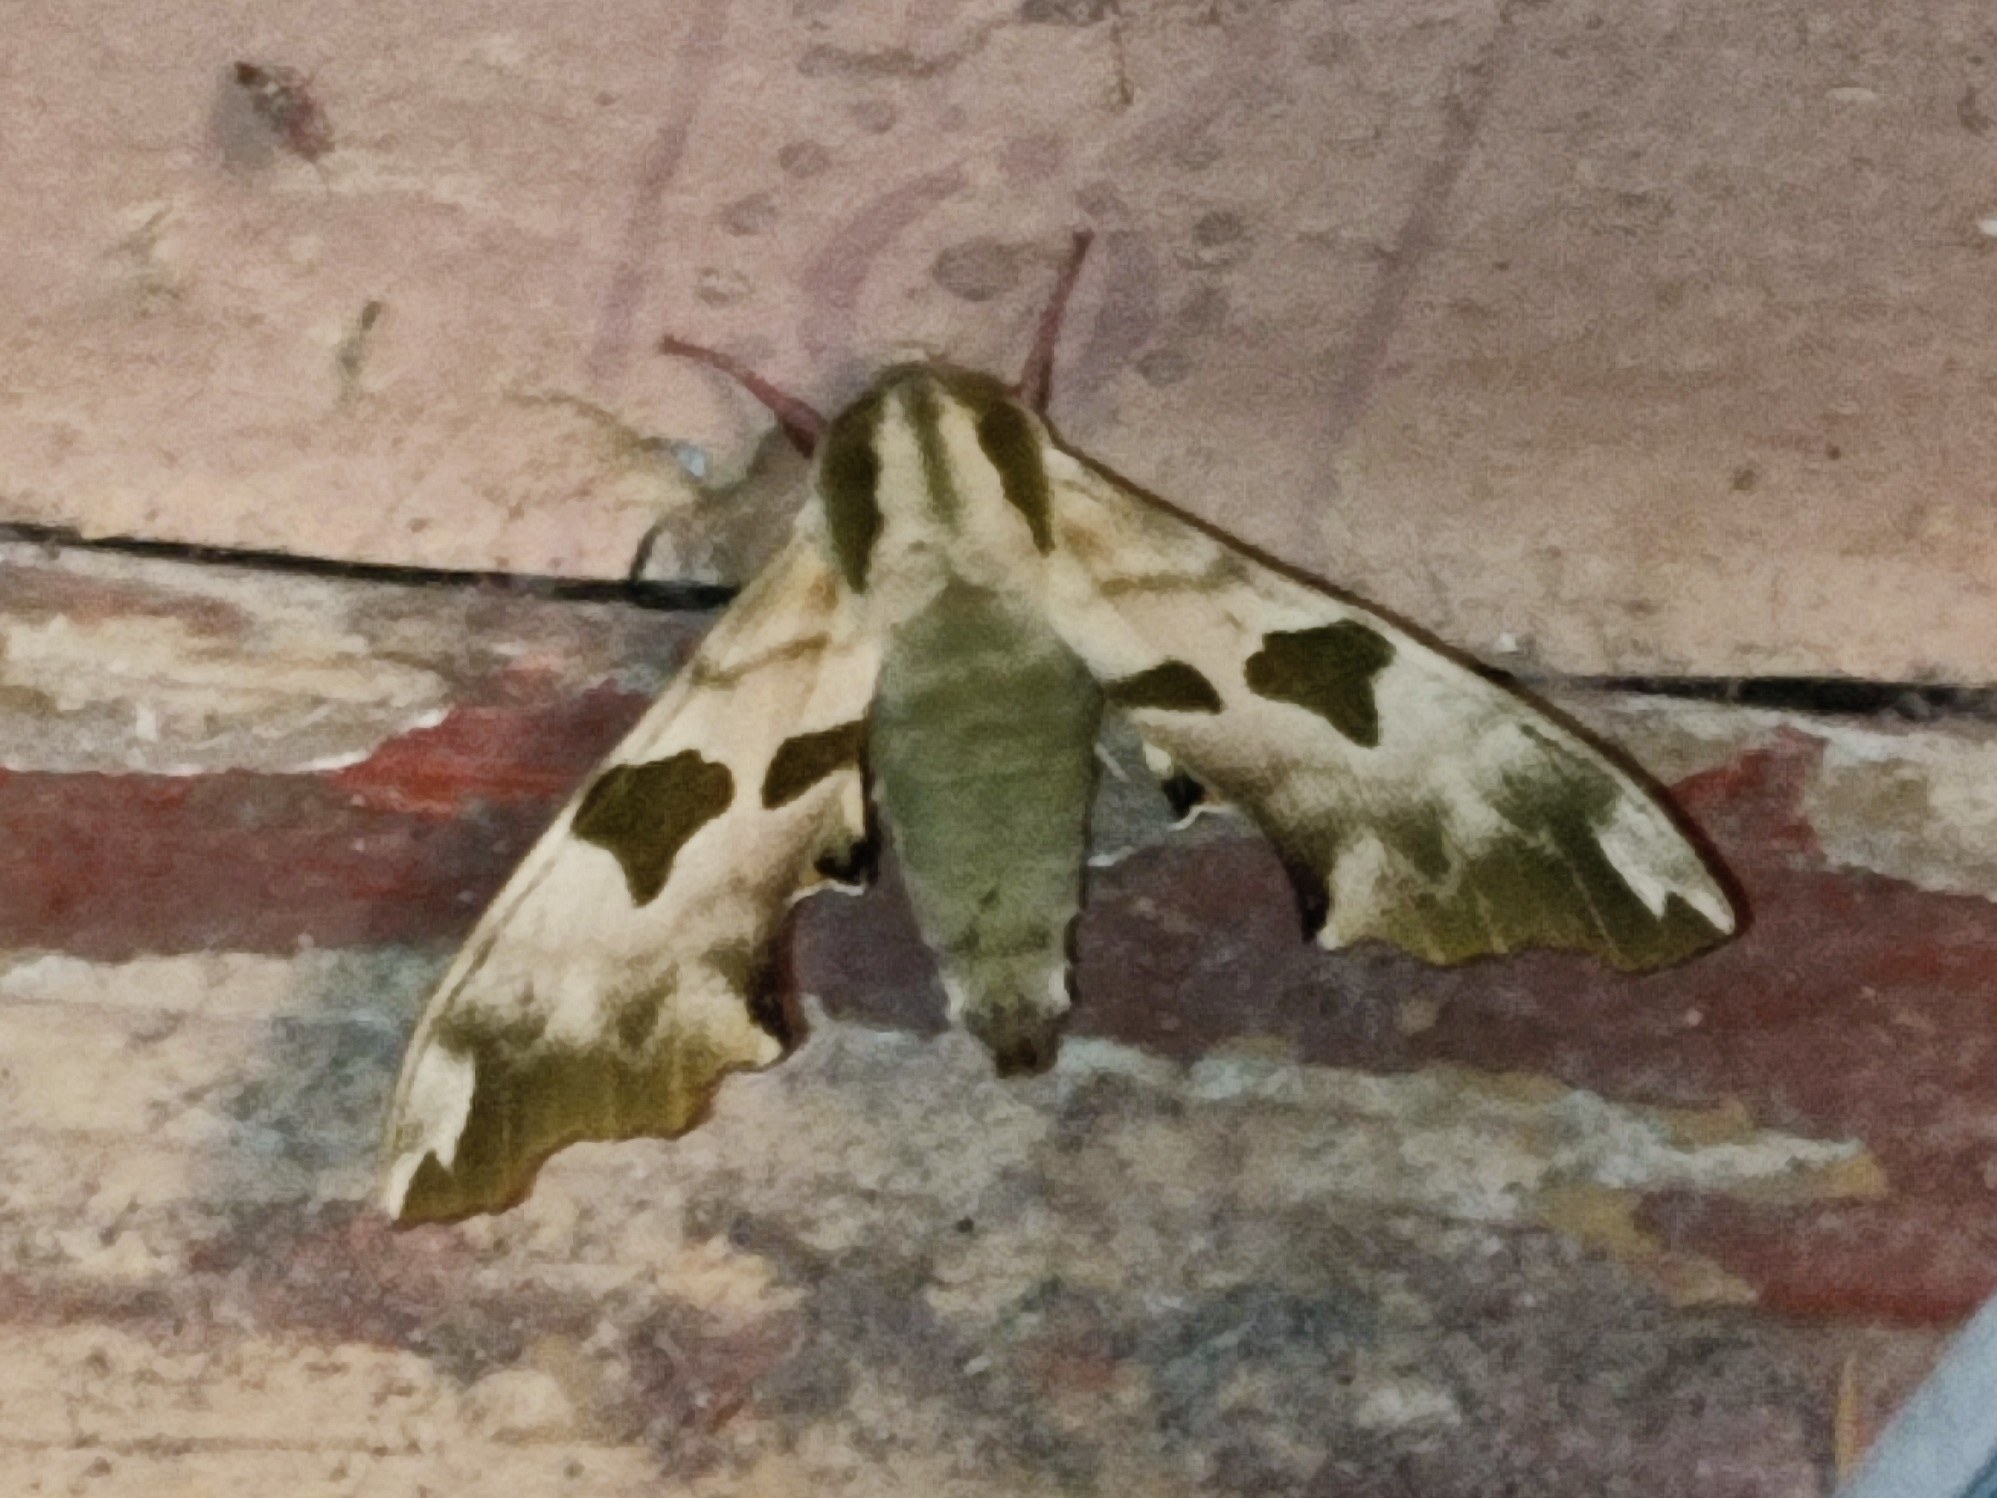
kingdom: Animalia
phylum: Arthropoda
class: Insecta
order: Lepidoptera
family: Sphingidae
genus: Mimas
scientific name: Mimas tiliae
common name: Lime hawk-moth
